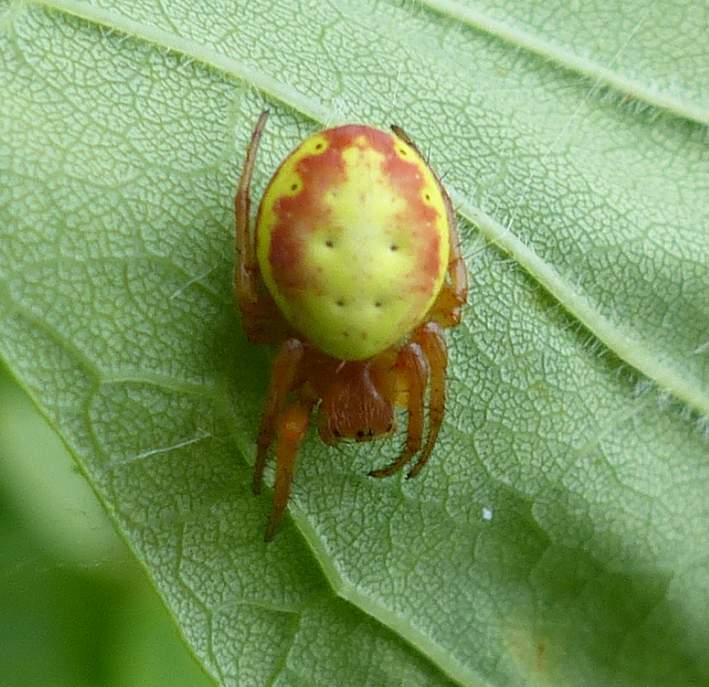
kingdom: Animalia
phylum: Arthropoda
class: Arachnida
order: Araneae
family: Araneidae
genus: Araniella
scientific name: Araniella displicata
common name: Sixspotted orb weaver
